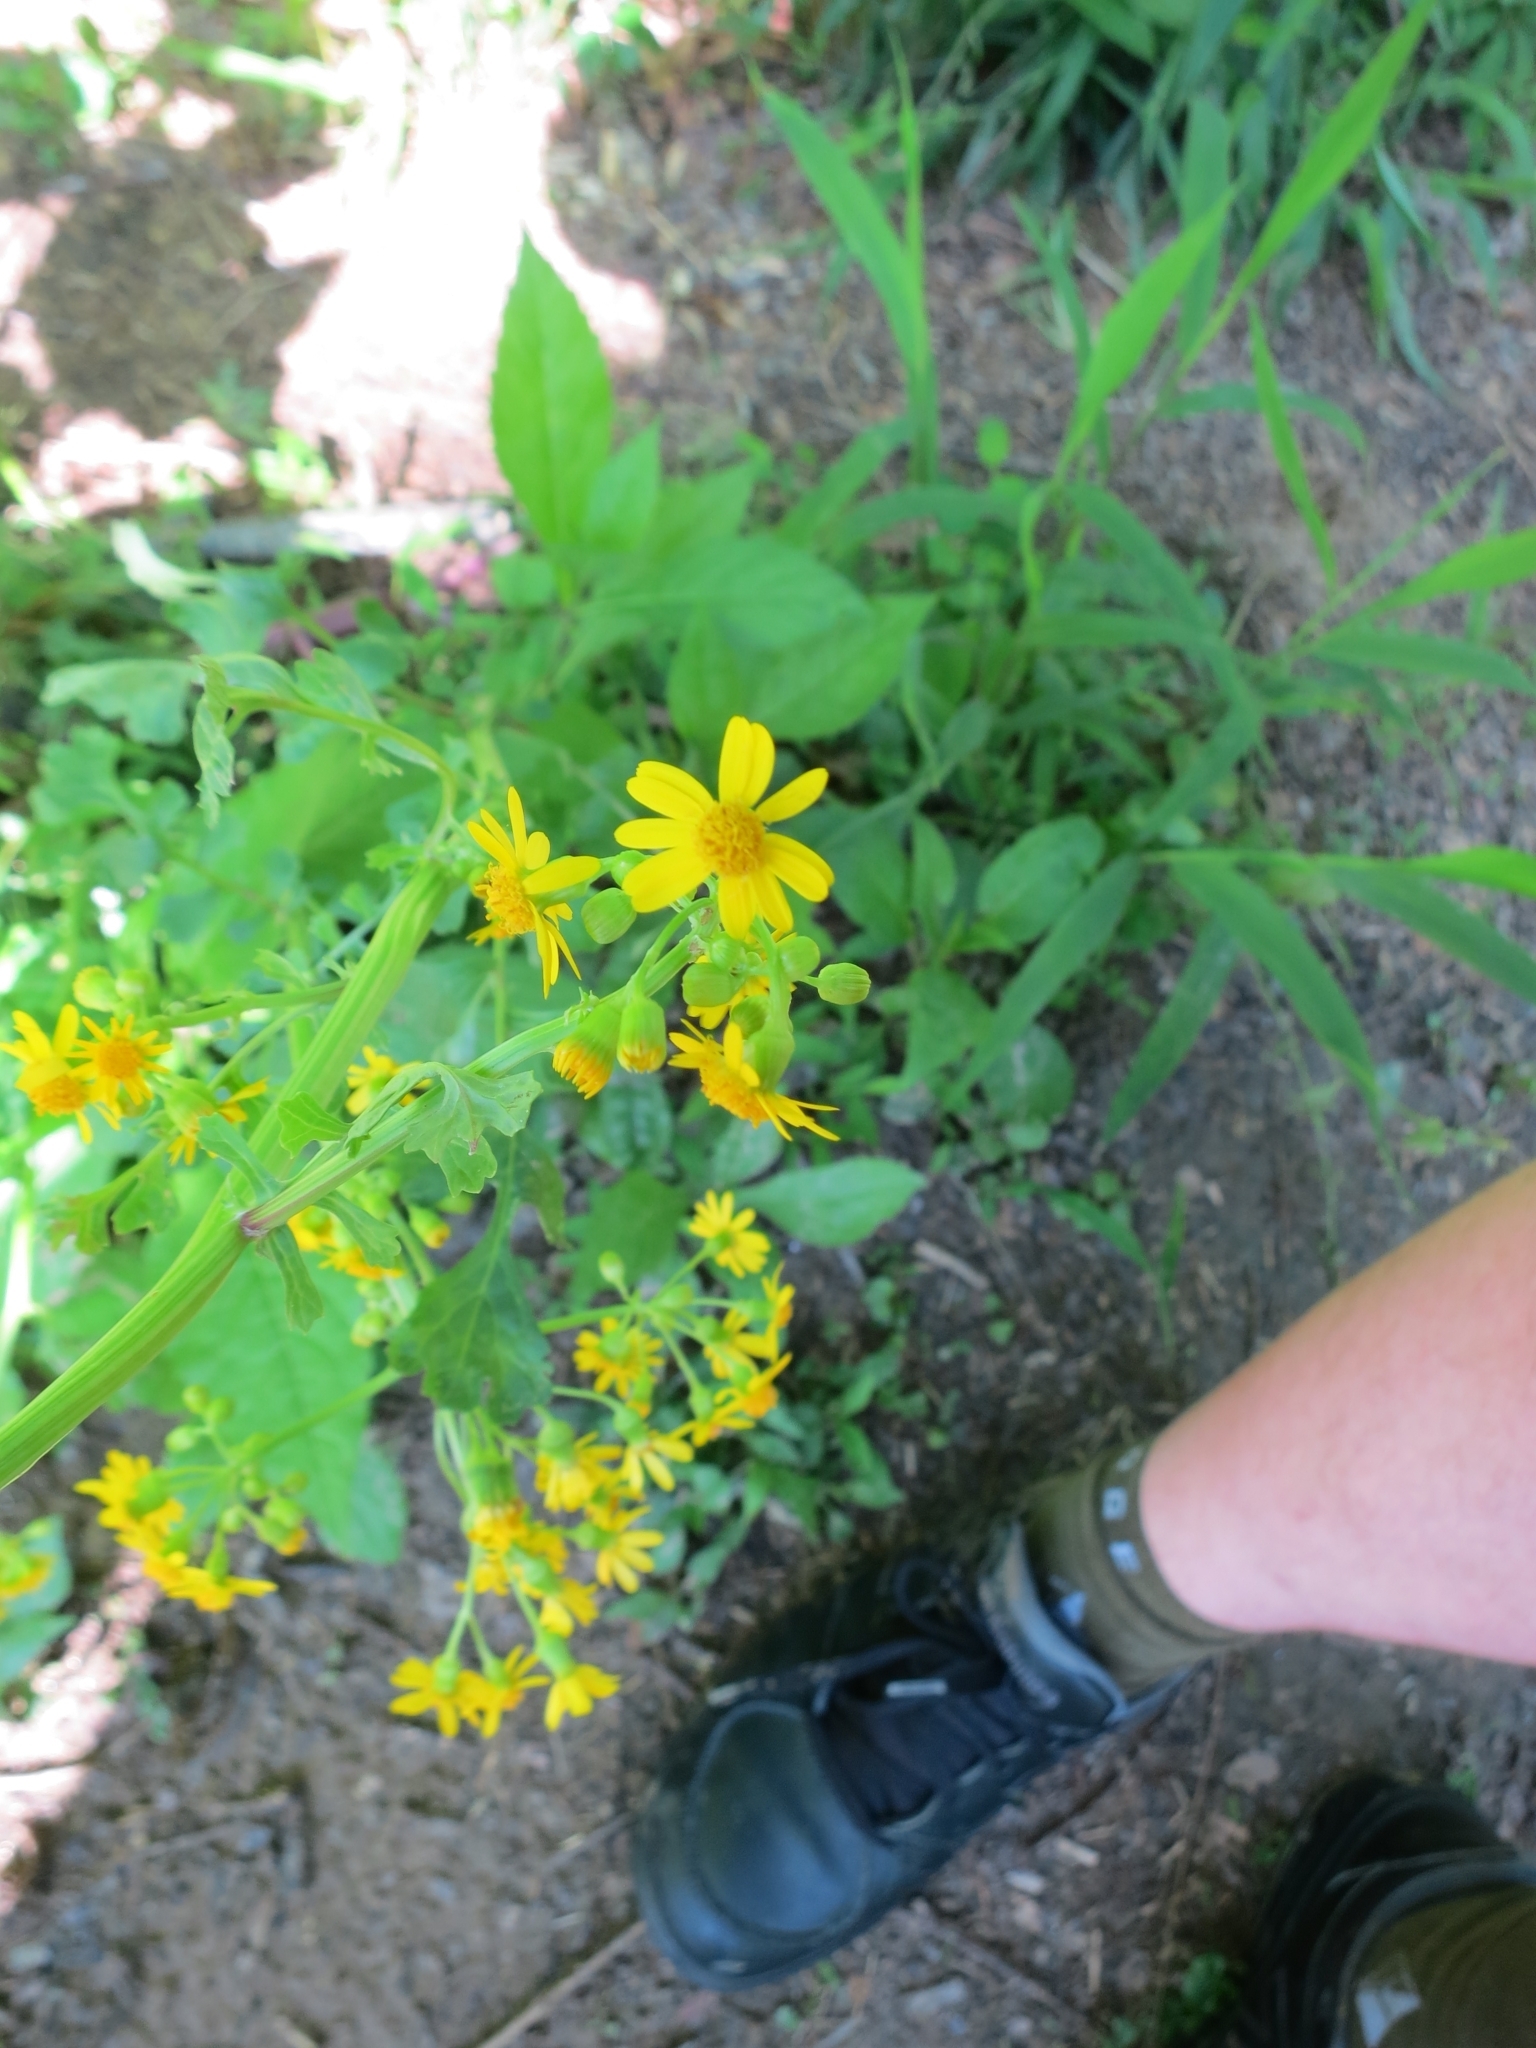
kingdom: Plantae
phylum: Tracheophyta
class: Magnoliopsida
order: Asterales
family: Asteraceae
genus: Packera
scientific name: Packera glabella
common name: Butterweed
